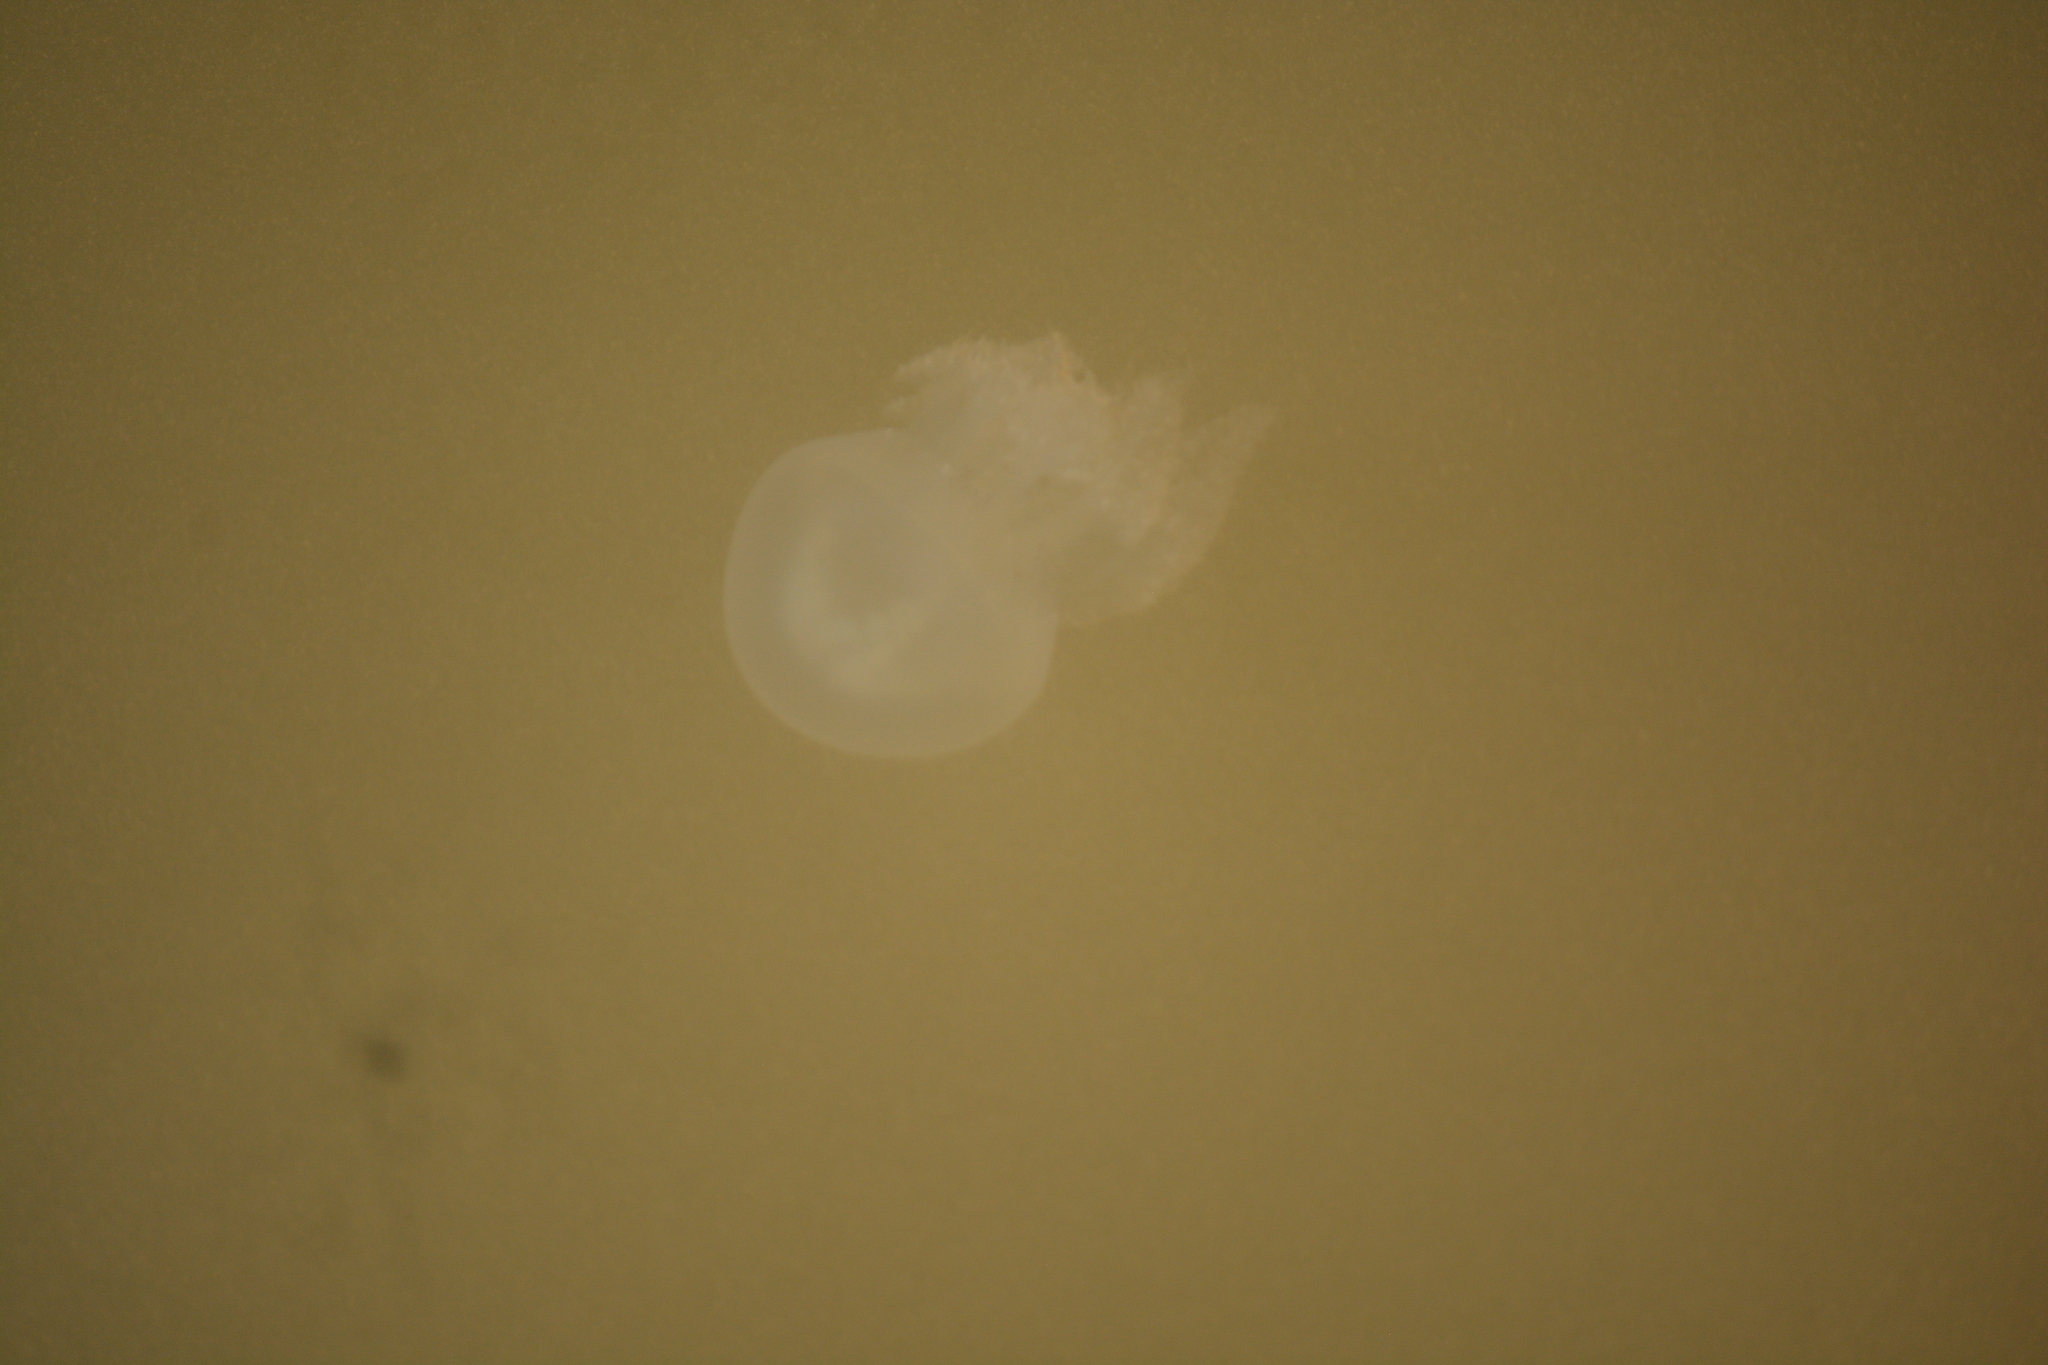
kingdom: Animalia
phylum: Cnidaria
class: Scyphozoa
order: Rhizostomeae
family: Catostylidae
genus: Acromitus
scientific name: Acromitus flagellatus
